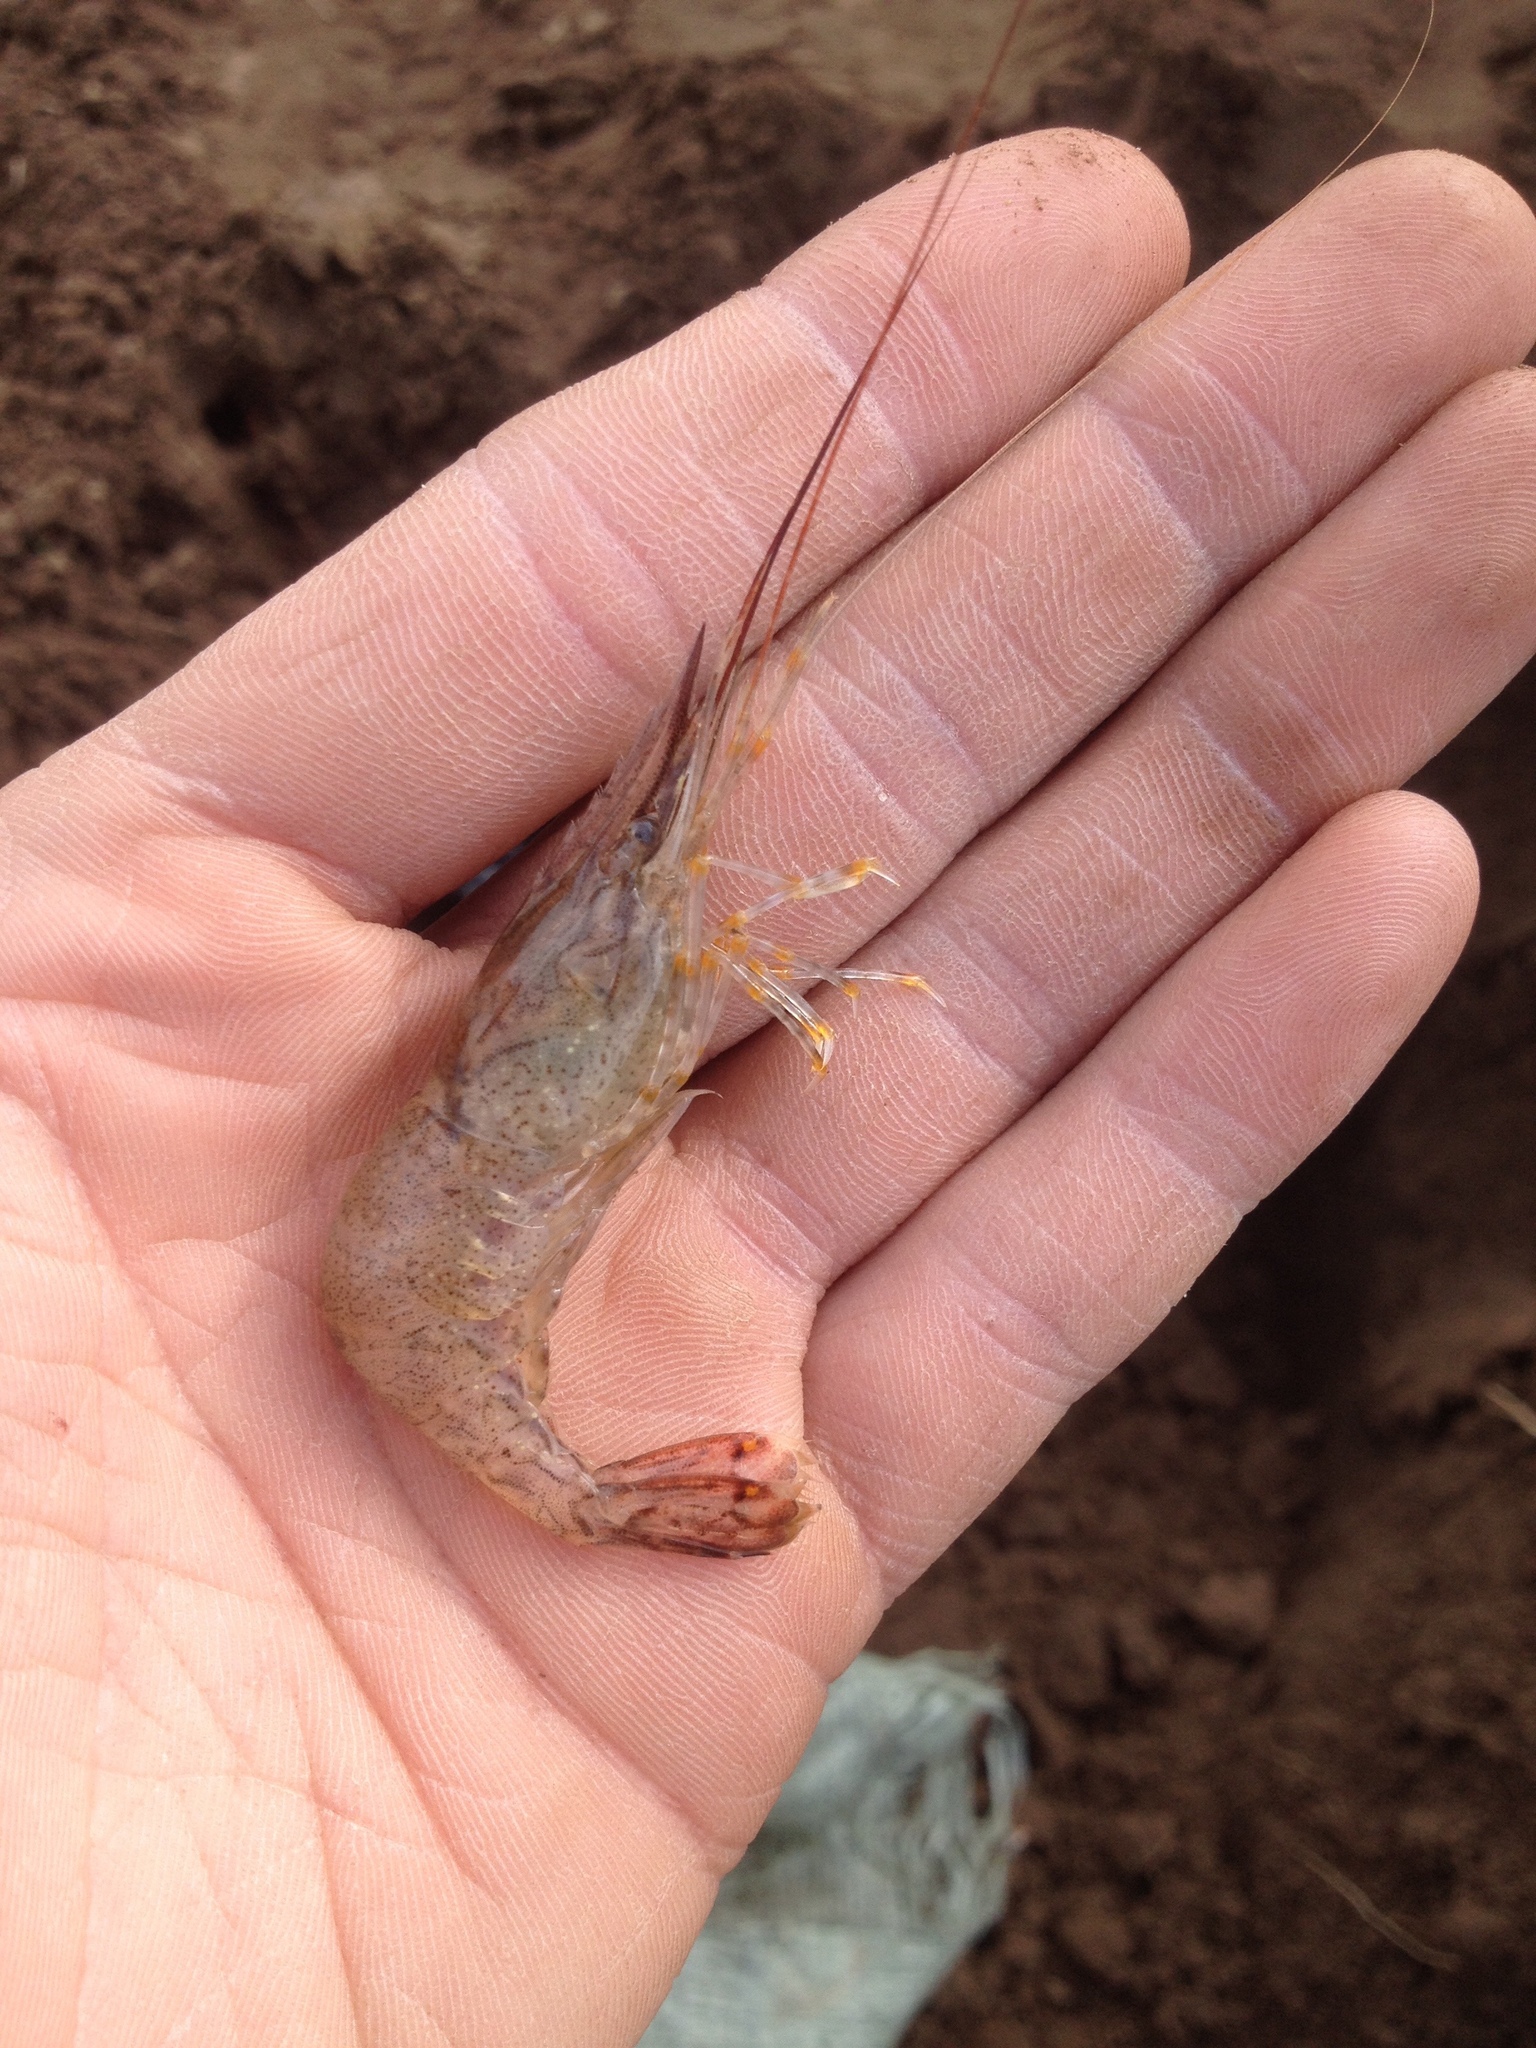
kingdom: Animalia
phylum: Arthropoda
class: Malacostraca
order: Decapoda
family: Palaemonidae
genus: Palaemon
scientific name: Palaemon adspersus
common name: Baltic prawn
